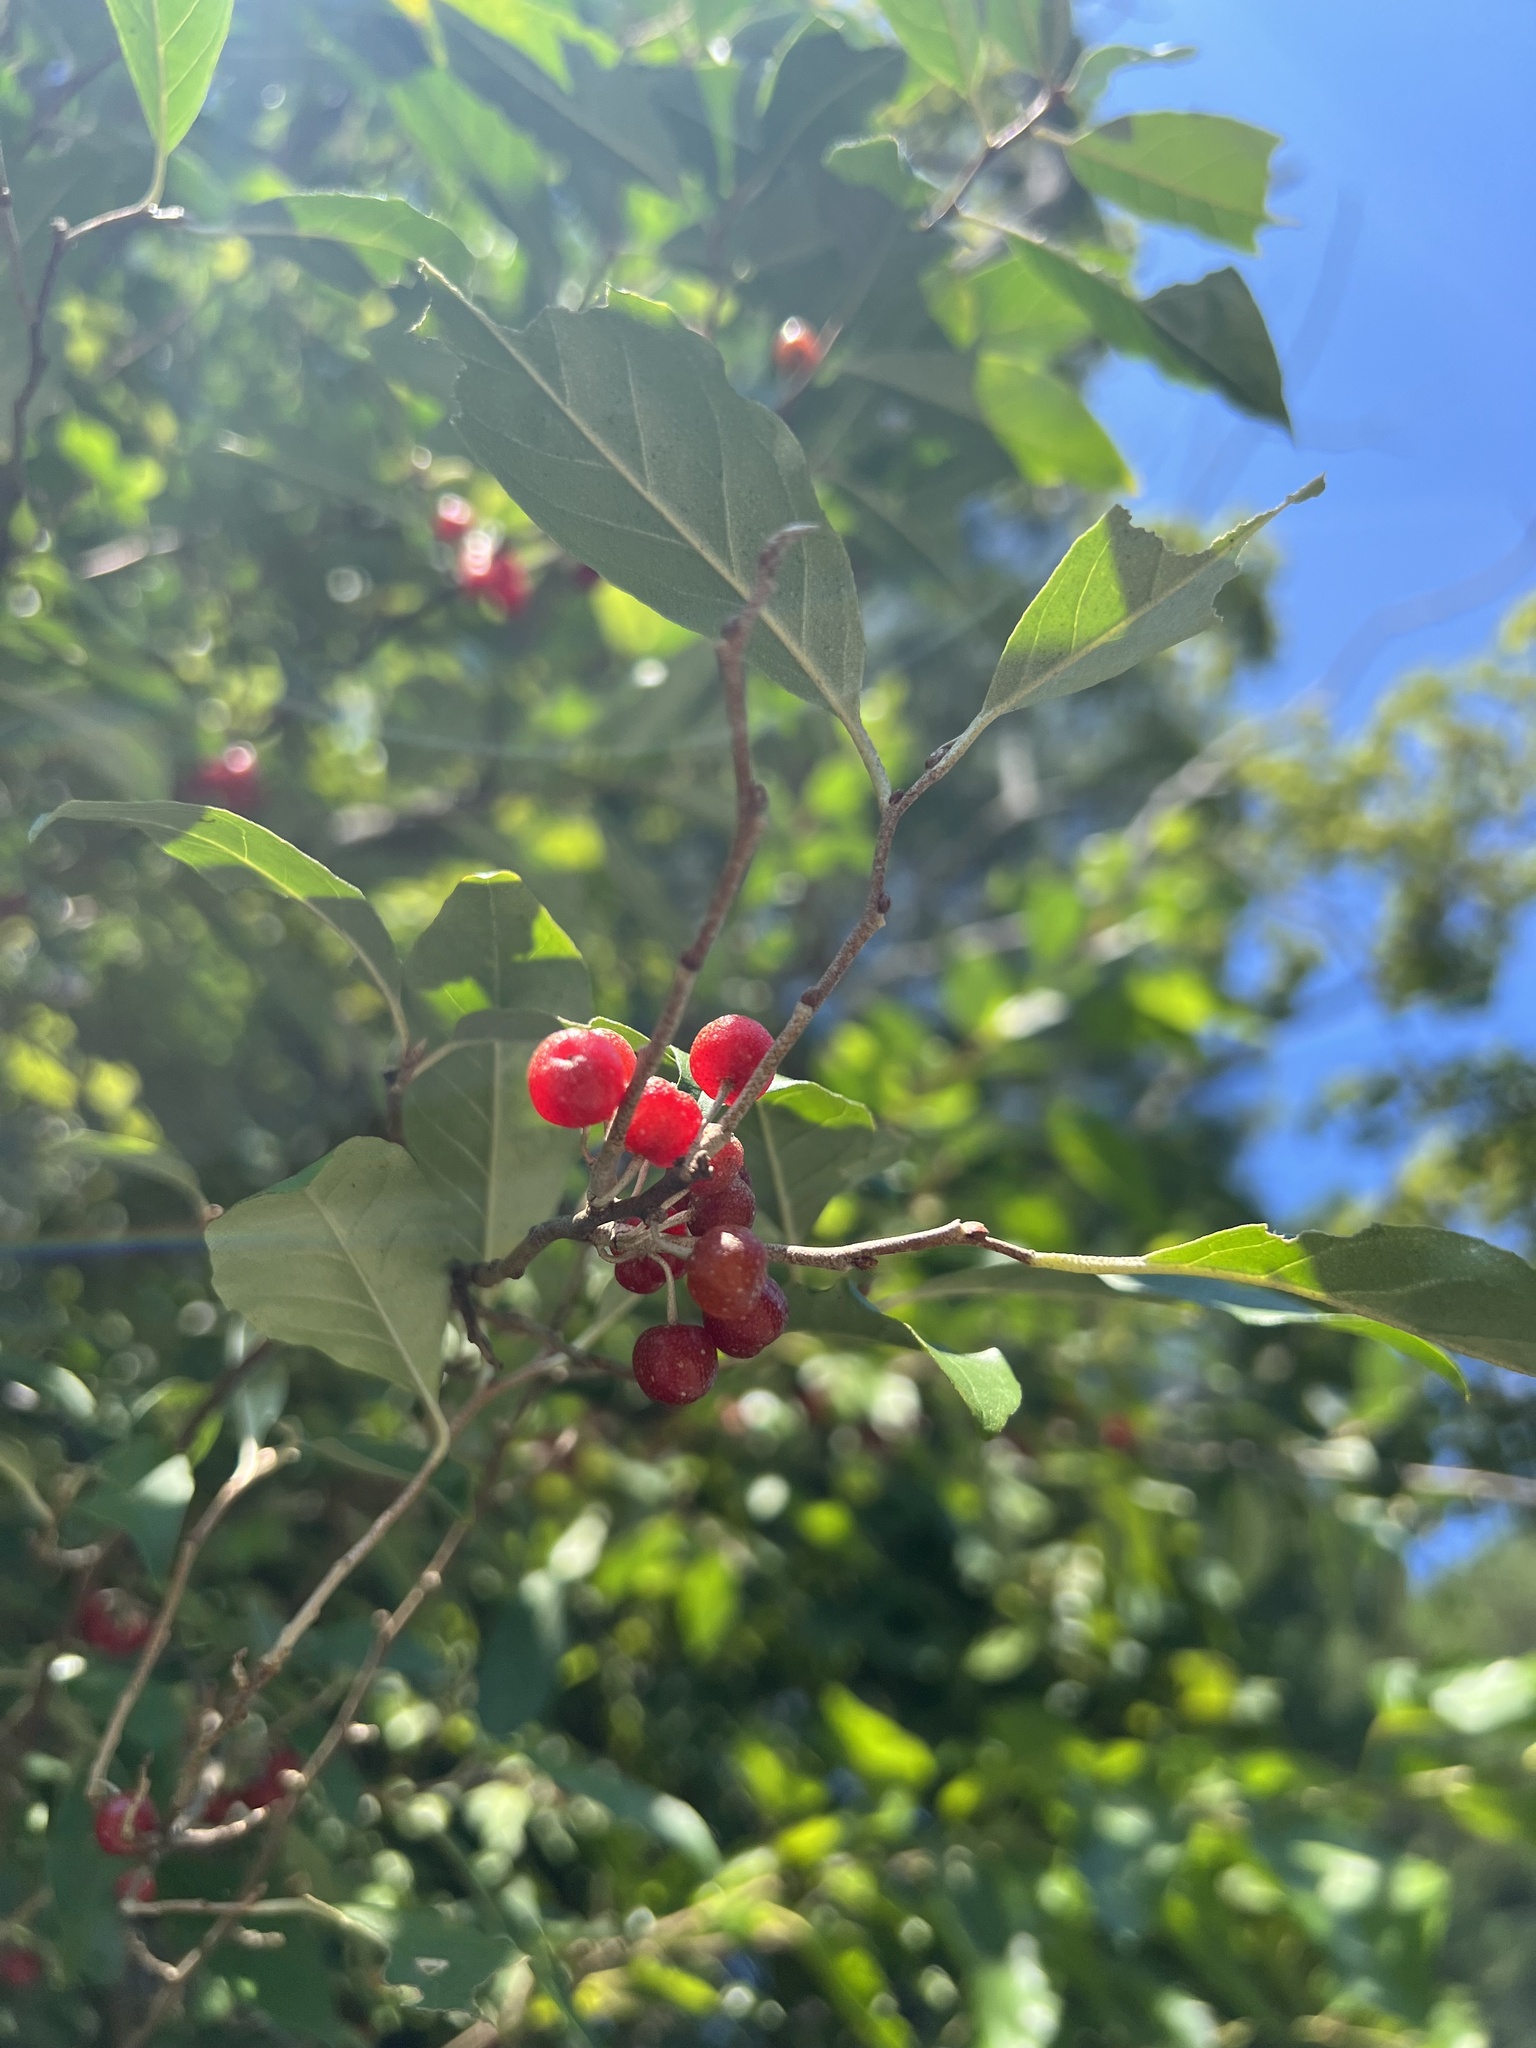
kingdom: Plantae
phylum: Tracheophyta
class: Magnoliopsida
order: Rosales
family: Elaeagnaceae
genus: Elaeagnus
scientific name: Elaeagnus umbellata
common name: Autumn olive
